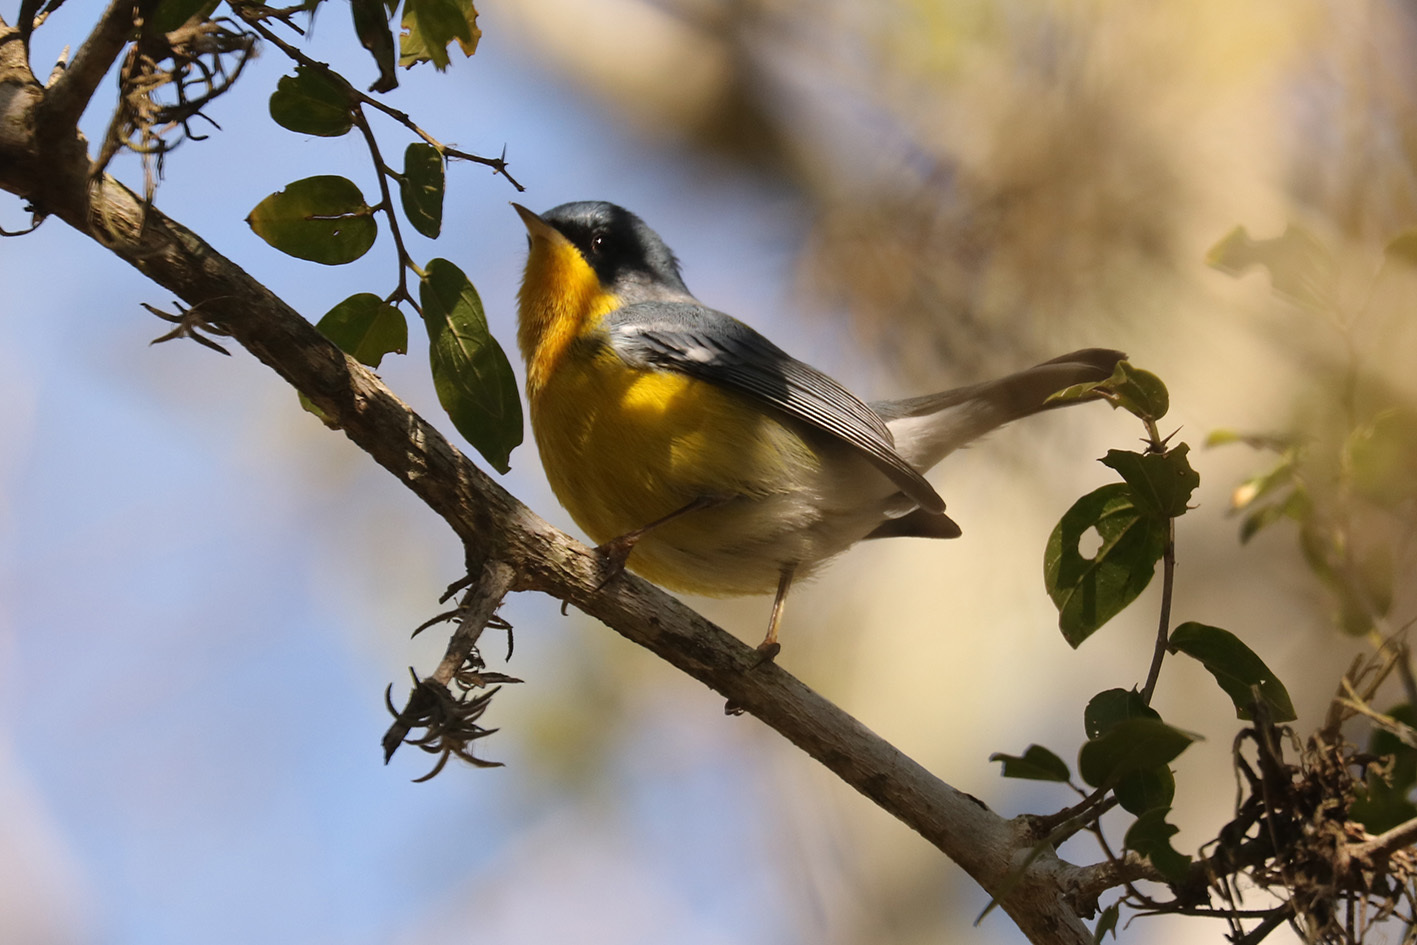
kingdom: Animalia
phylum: Chordata
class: Aves
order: Passeriformes
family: Parulidae
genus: Setophaga
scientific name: Setophaga pitiayumi
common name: Tropical parula
